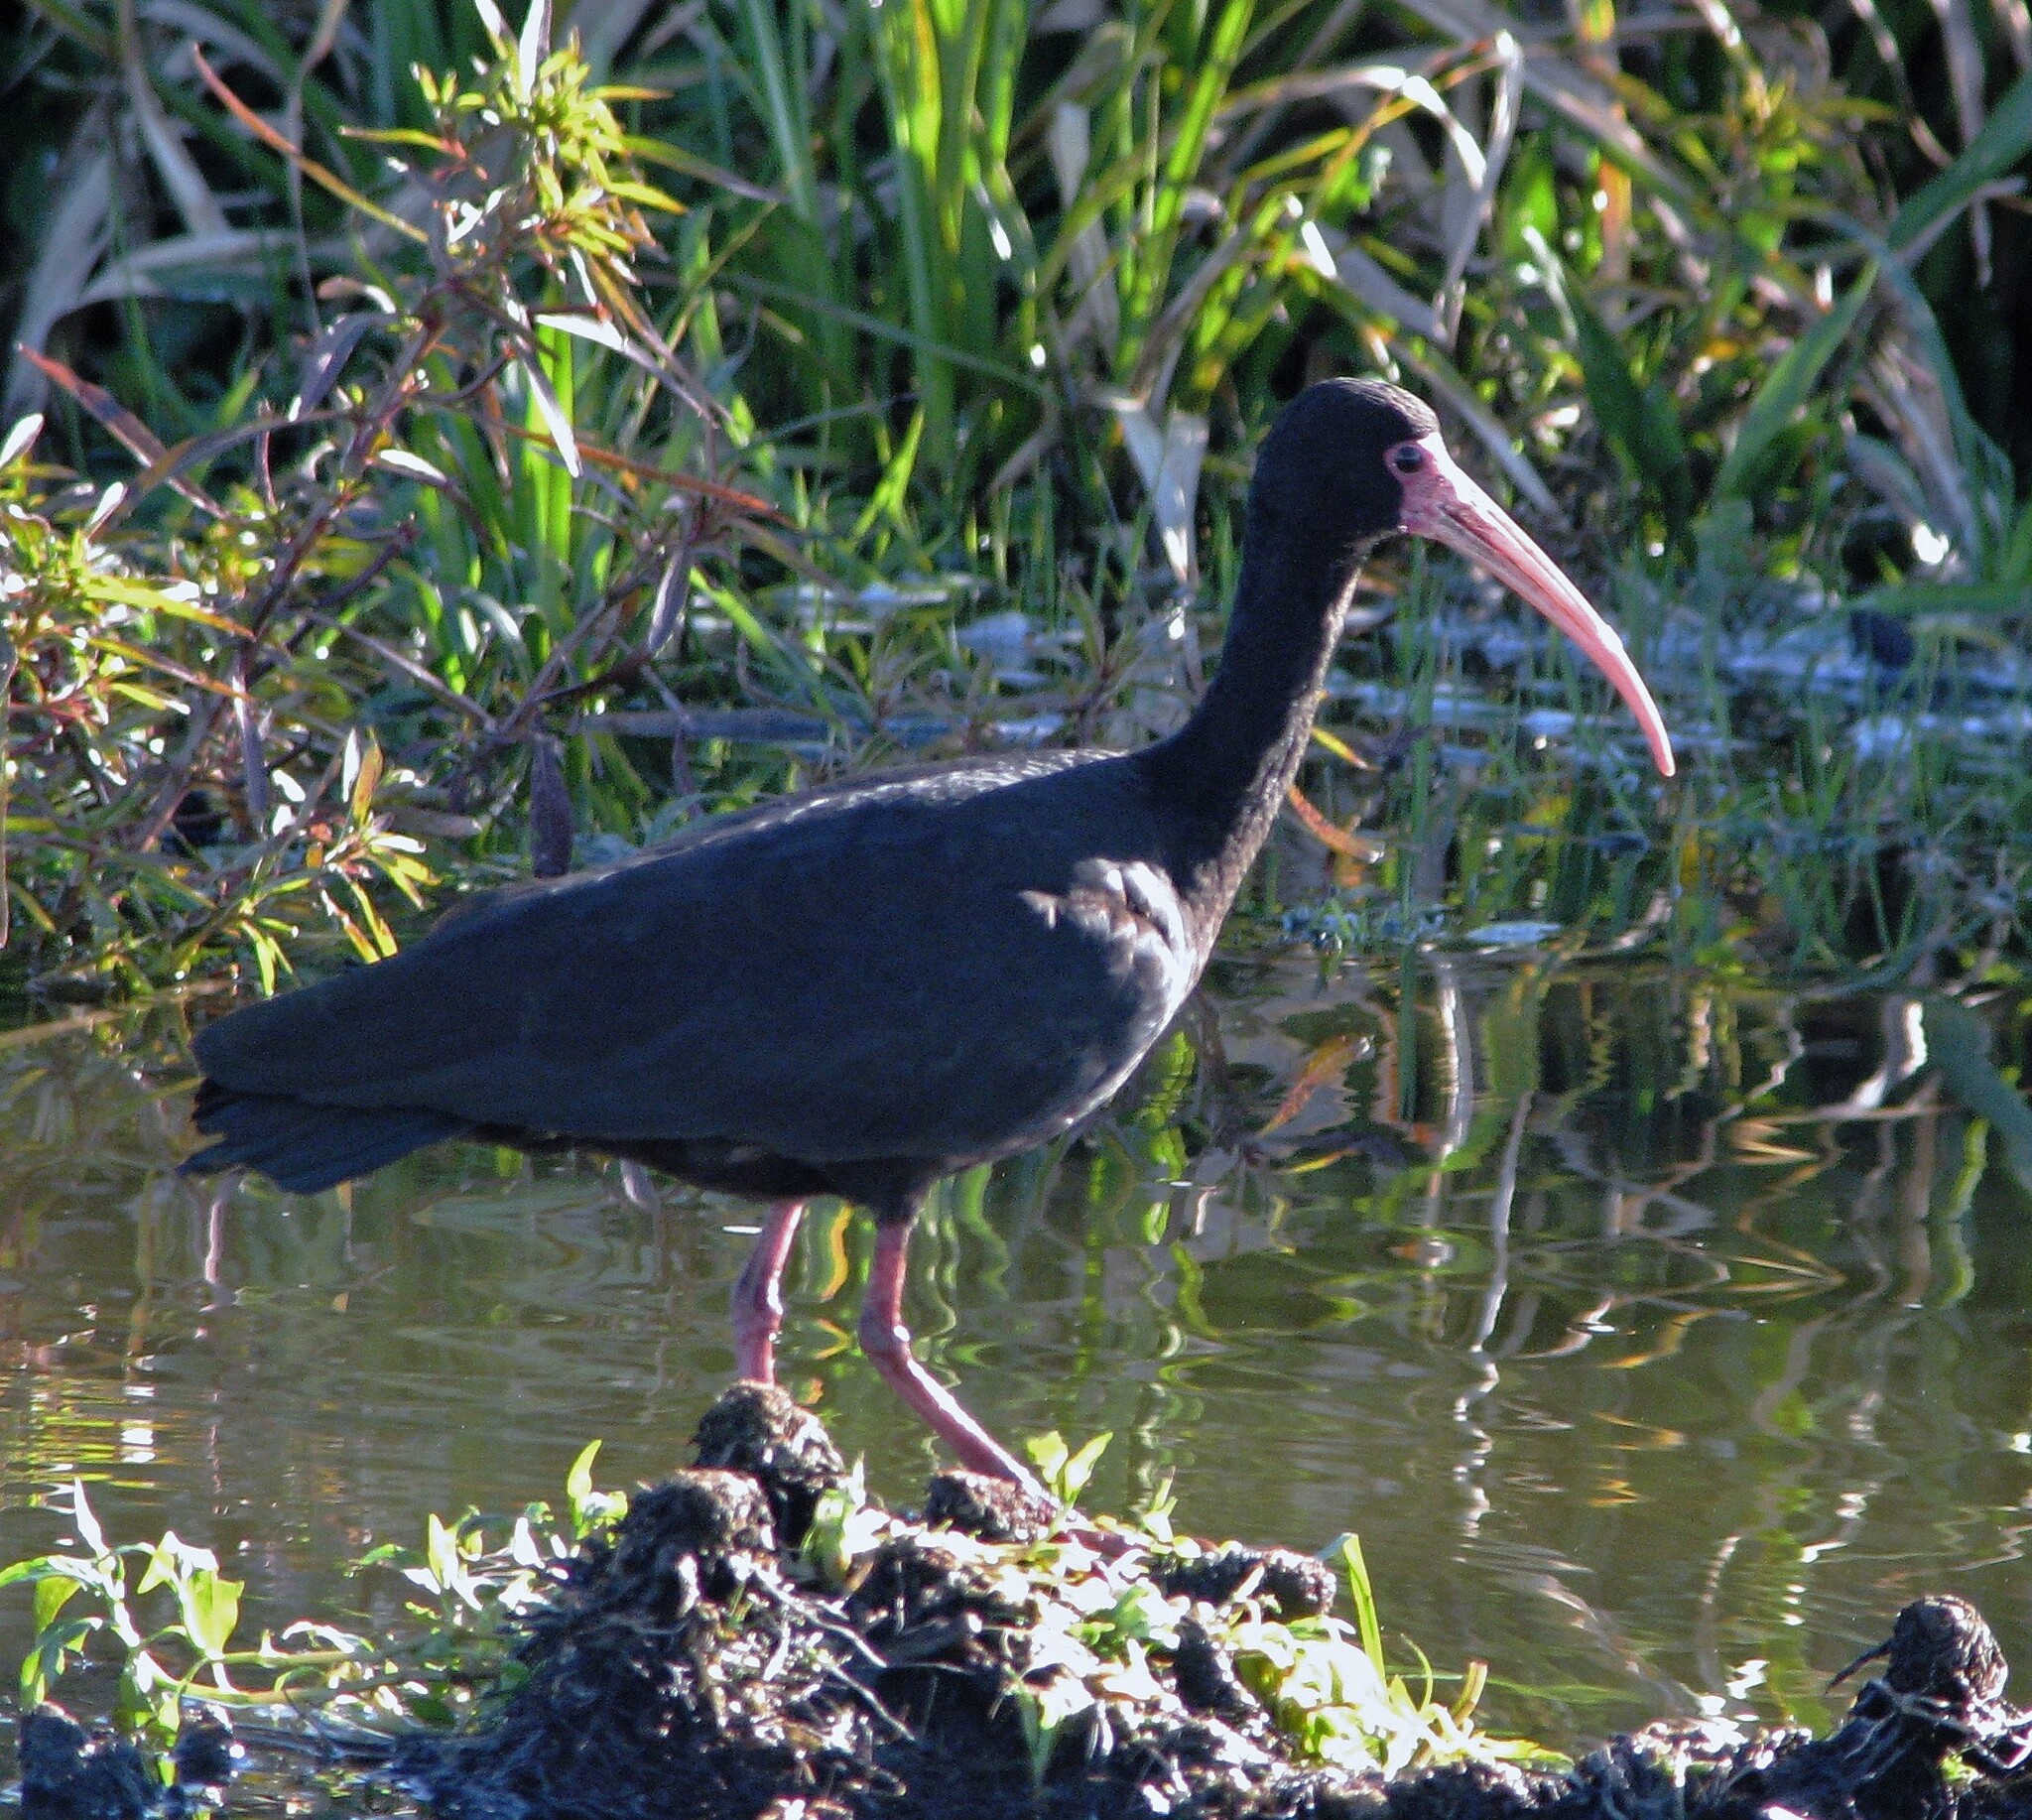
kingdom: Animalia
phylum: Chordata
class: Aves
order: Pelecaniformes
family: Threskiornithidae
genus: Phimosus
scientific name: Phimosus infuscatus
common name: Bare-faced ibis
